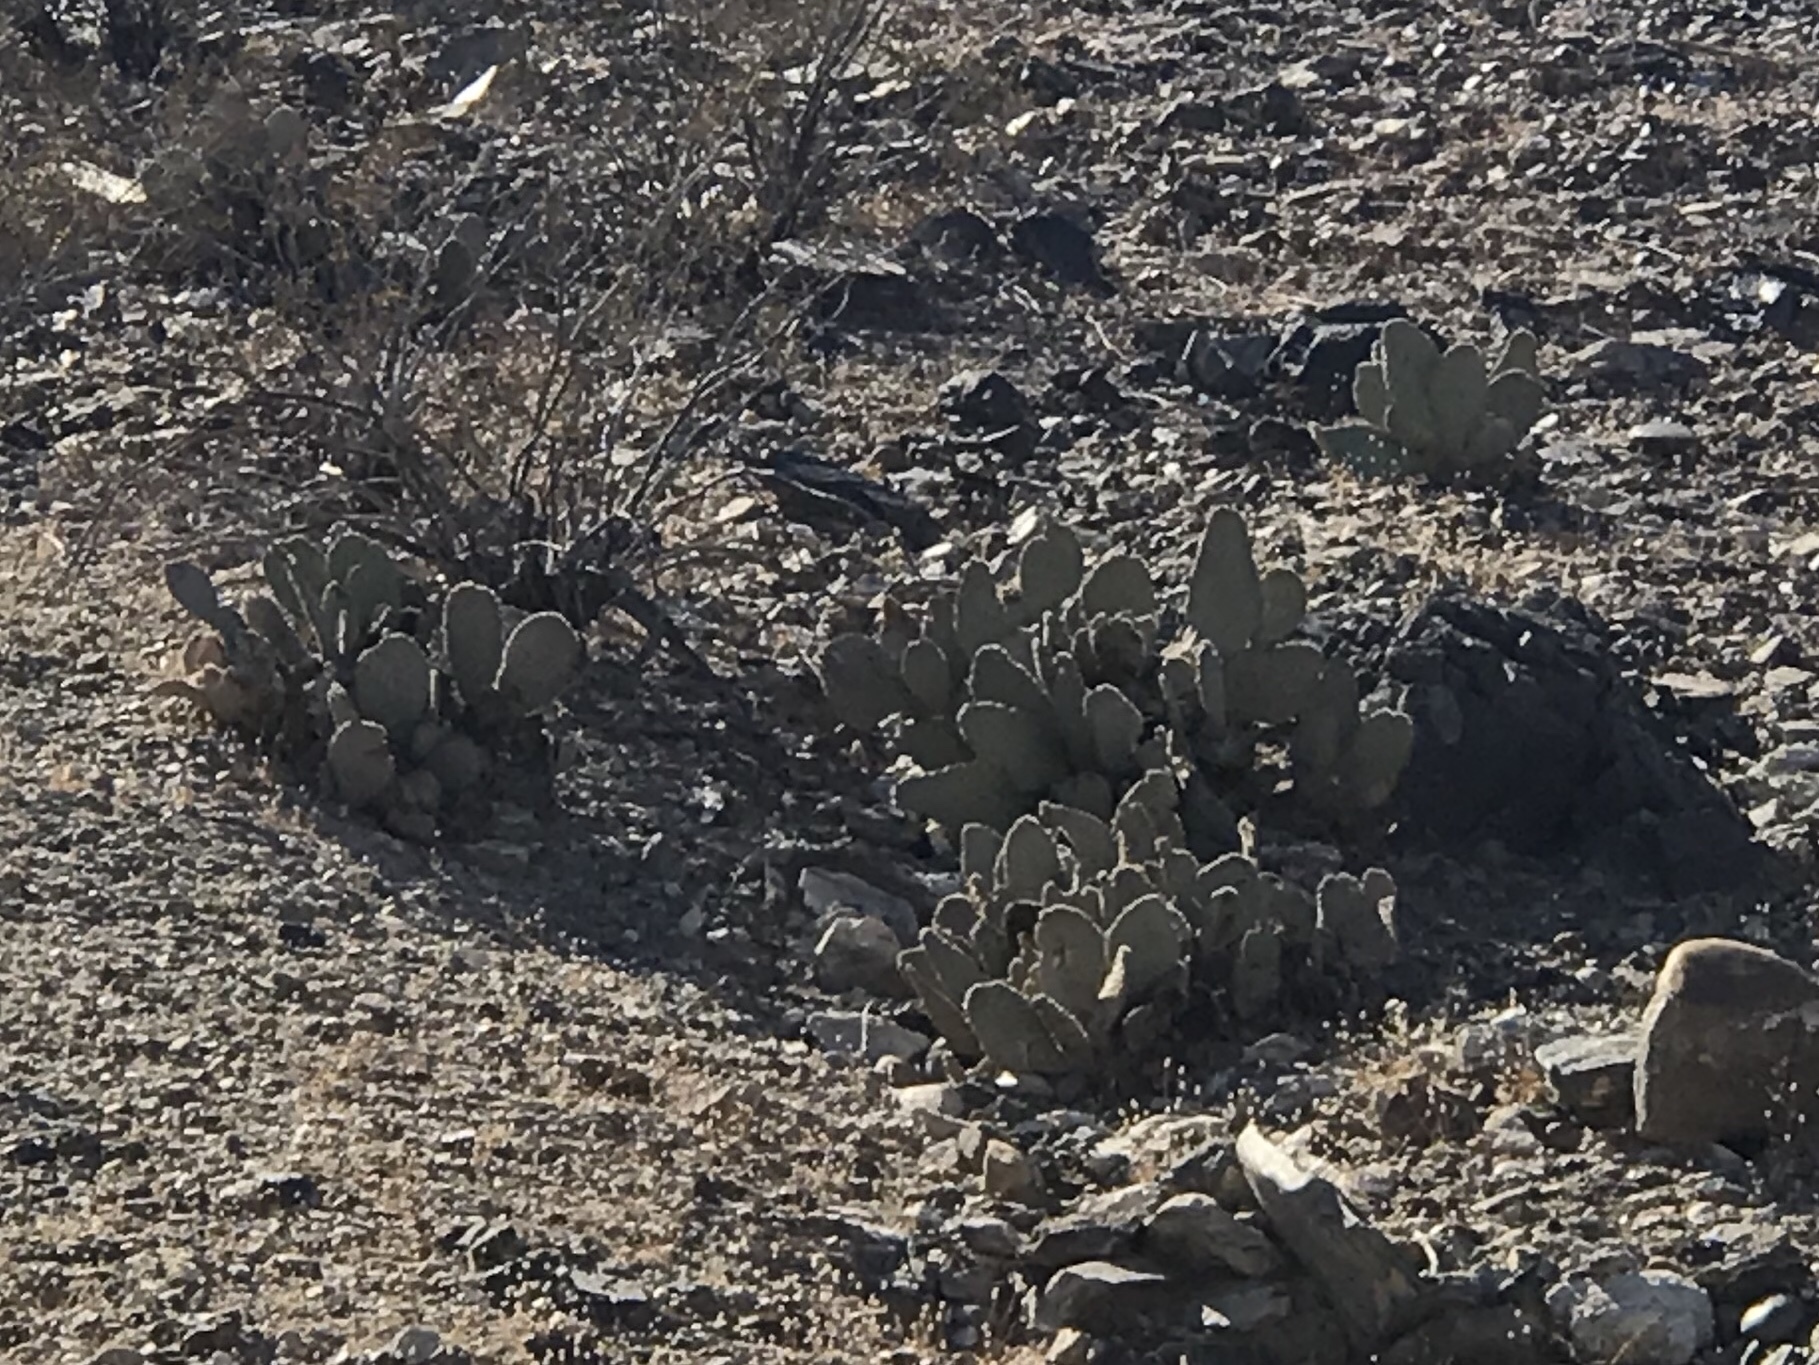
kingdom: Plantae
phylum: Tracheophyta
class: Magnoliopsida
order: Caryophyllales
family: Cactaceae
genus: Opuntia
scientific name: Opuntia basilaris
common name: Beavertail prickly-pear
